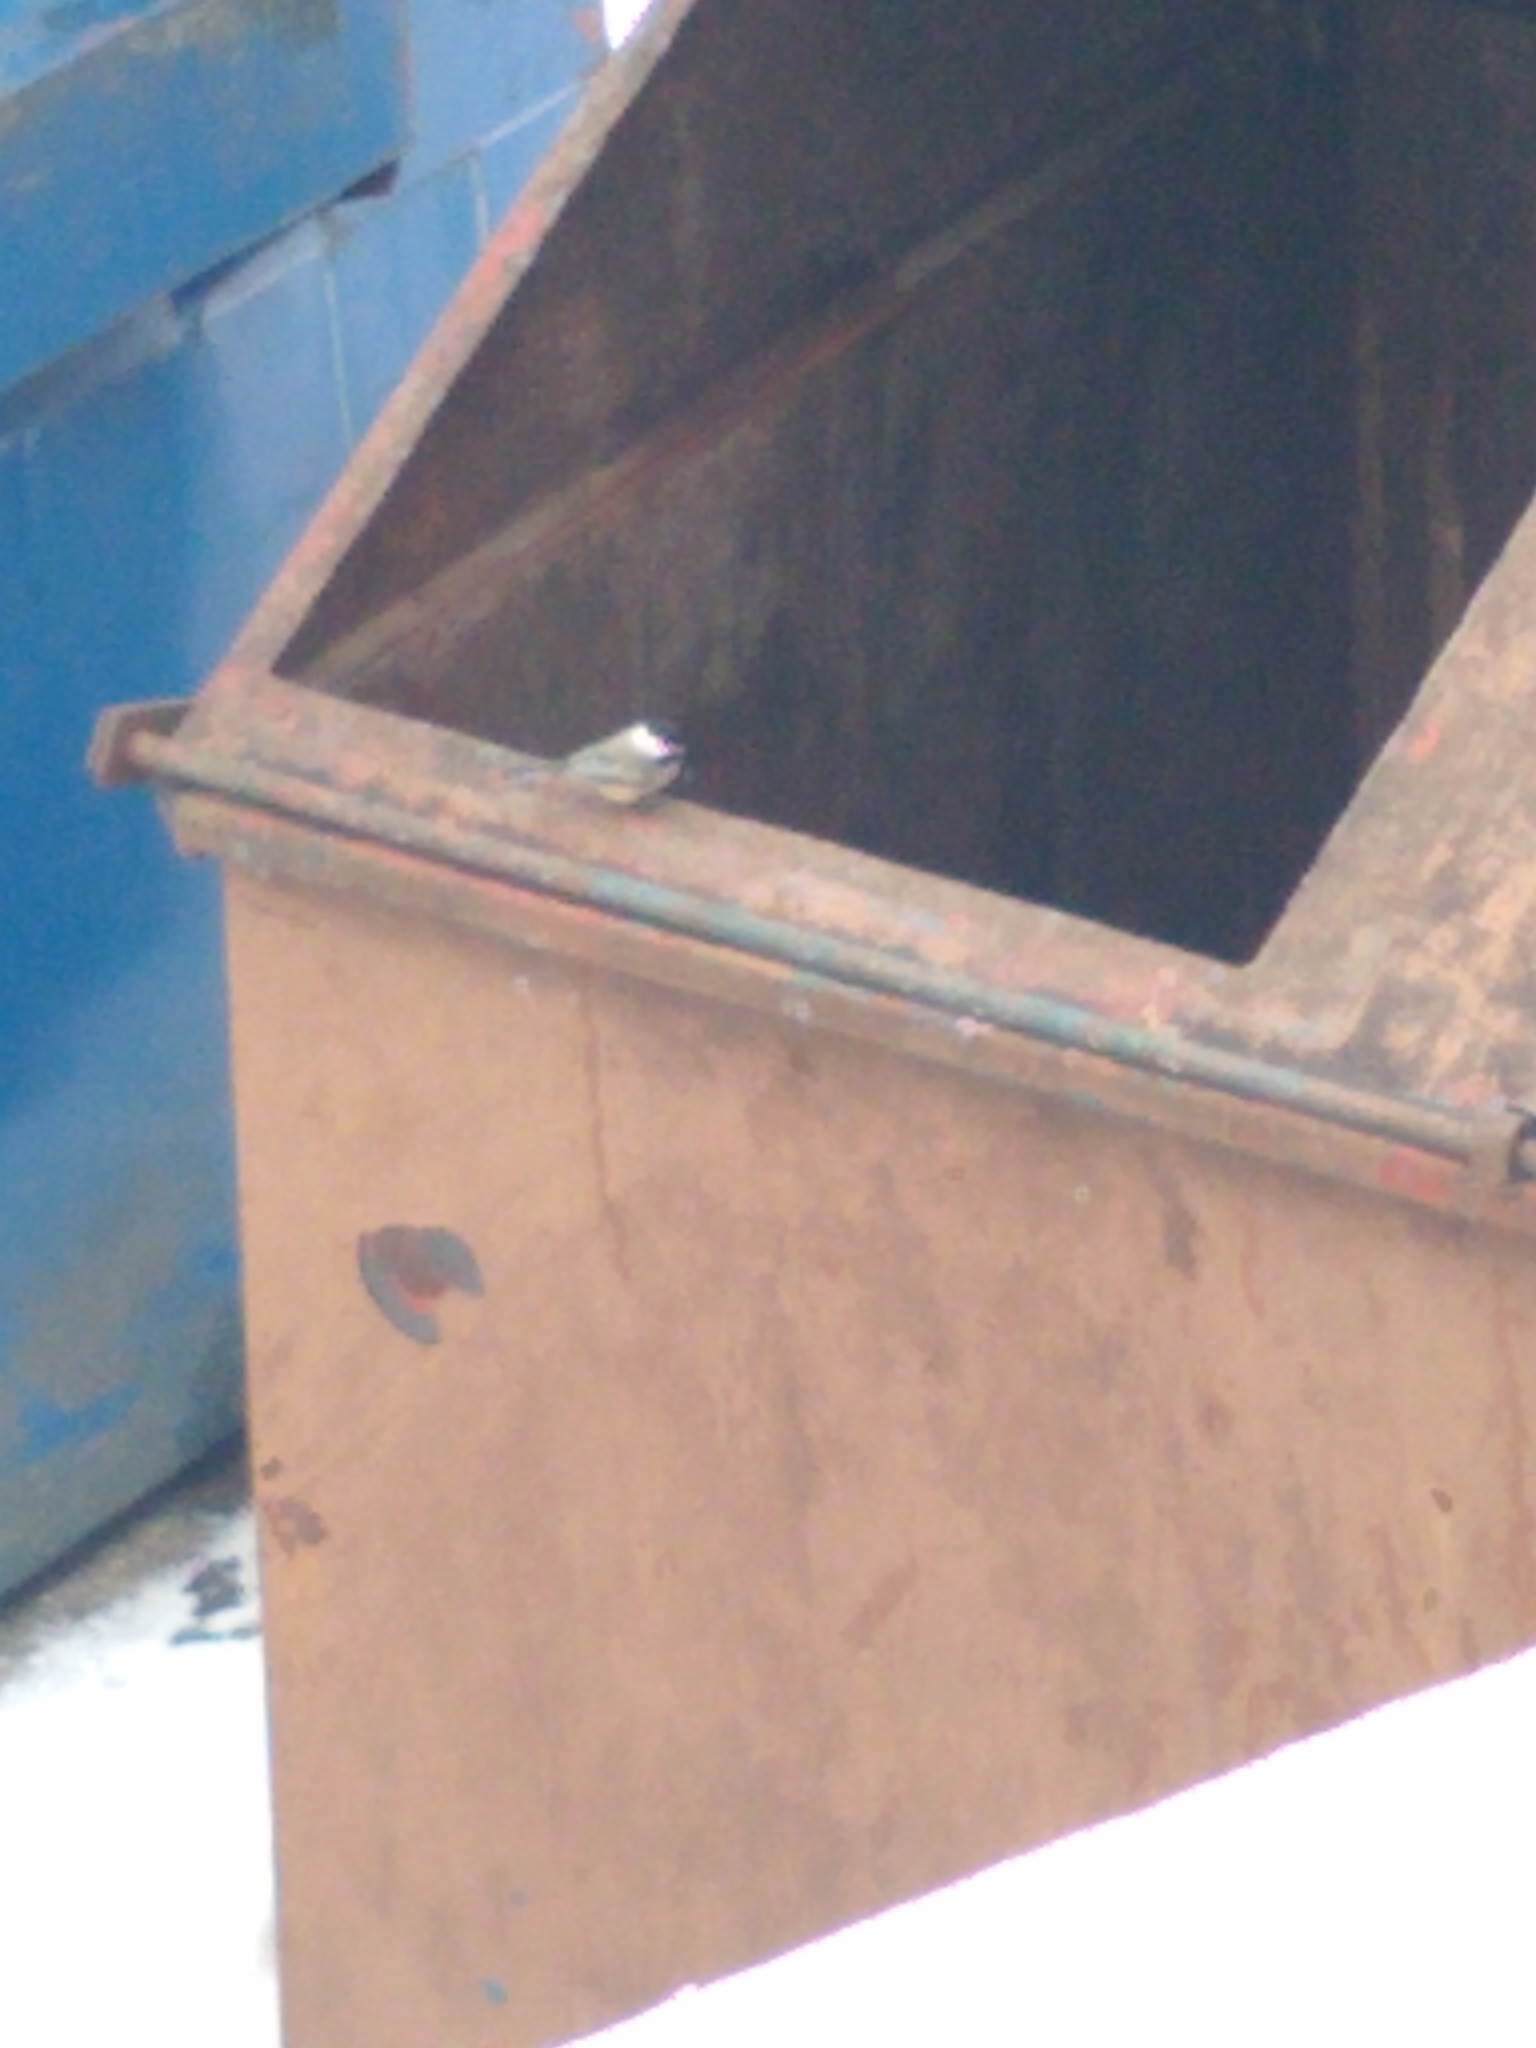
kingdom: Animalia
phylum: Chordata
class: Aves
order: Passeriformes
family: Paridae
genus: Poecile
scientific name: Poecile atricapillus
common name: Black-capped chickadee
